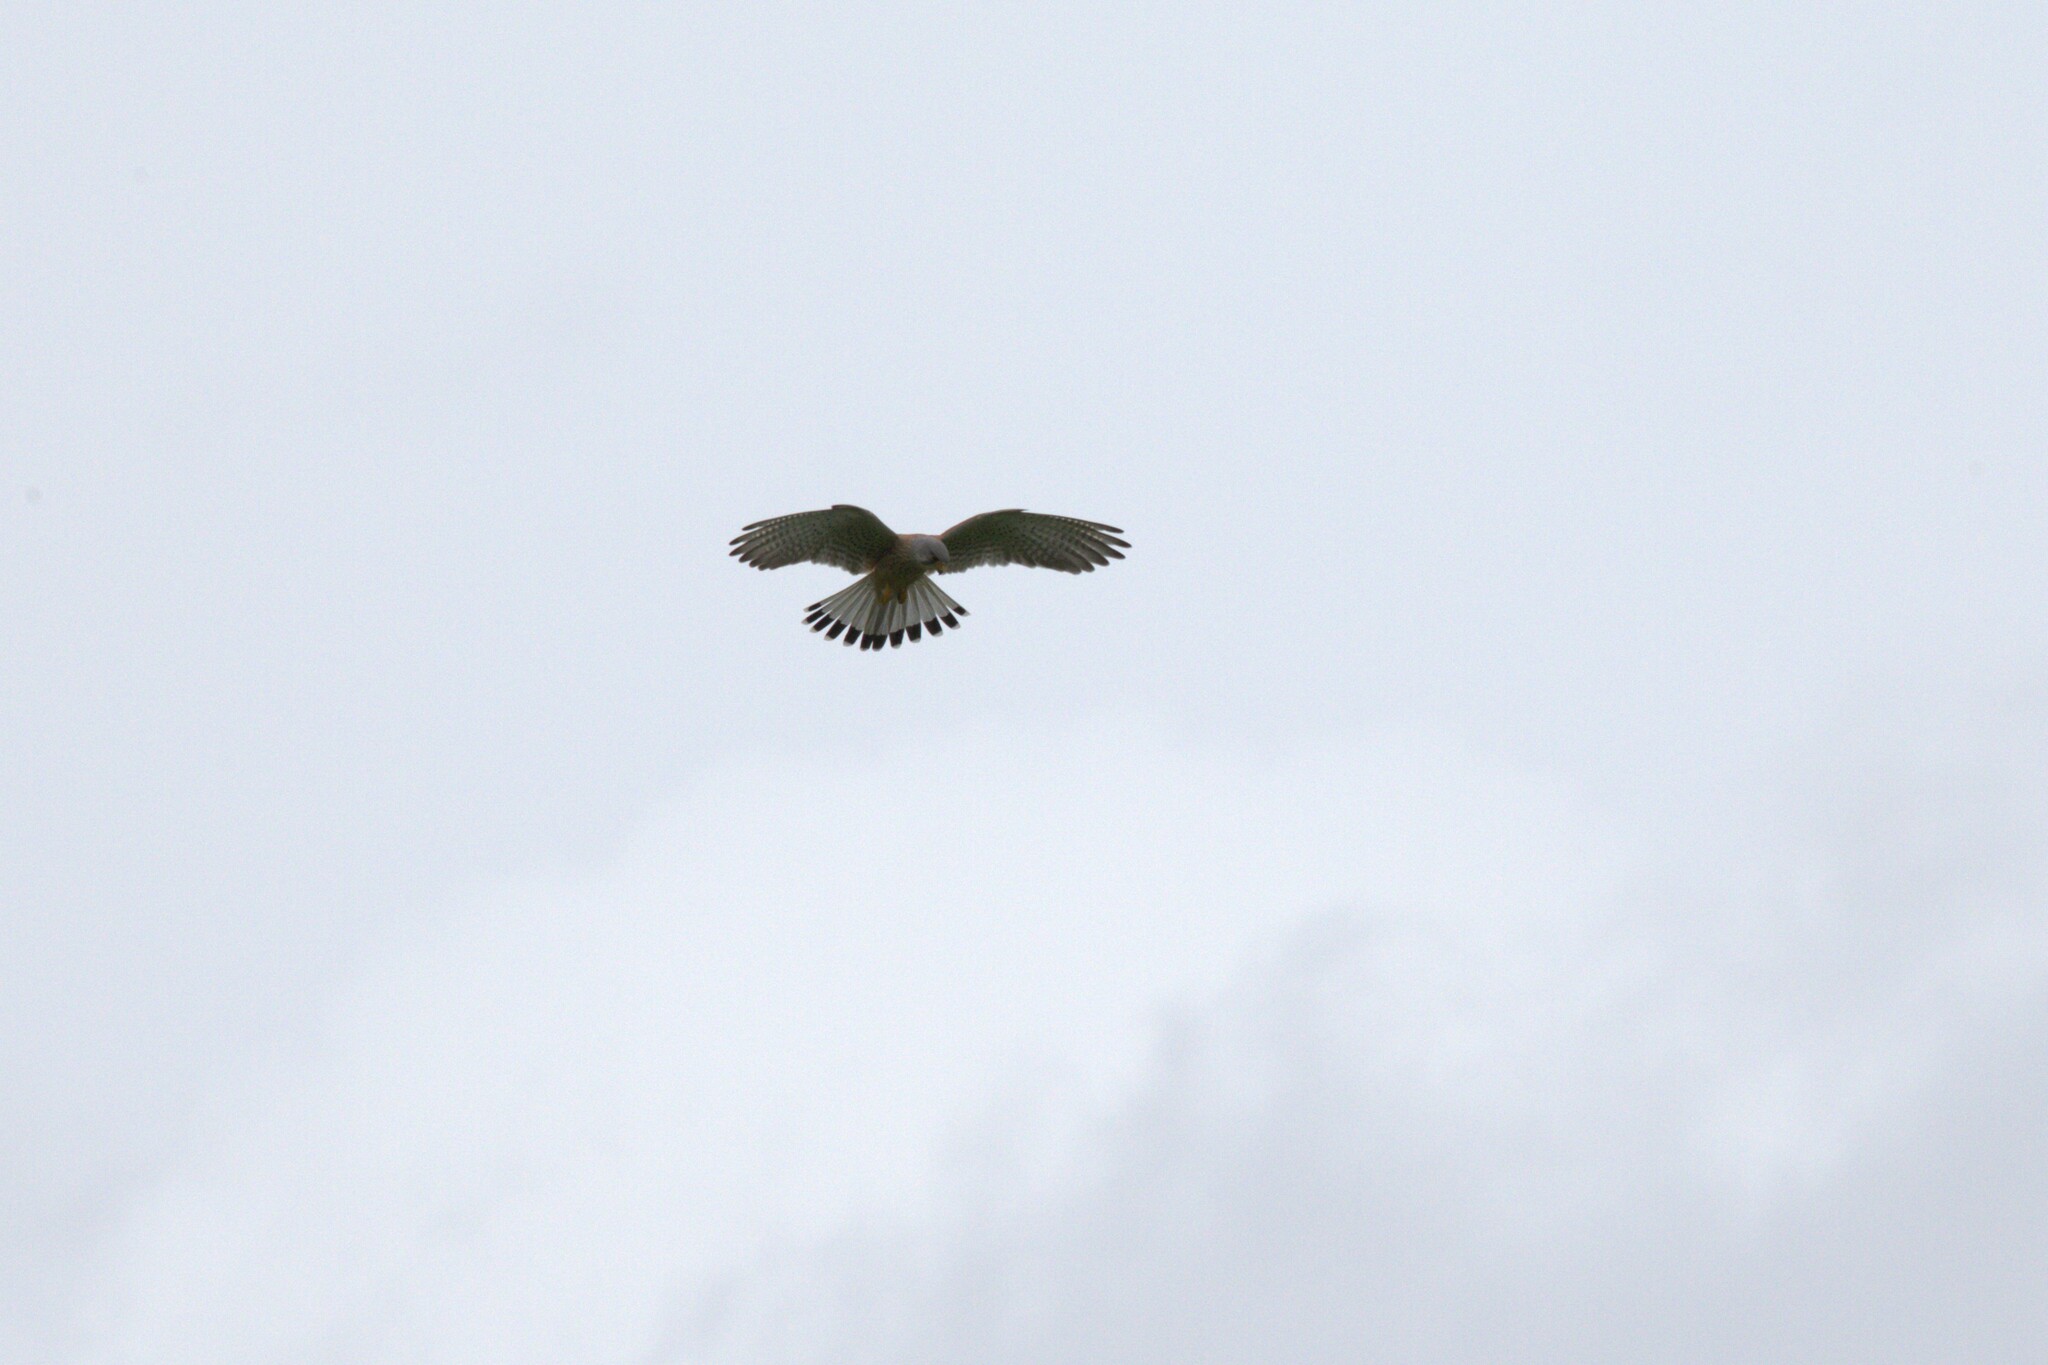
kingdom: Animalia
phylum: Chordata
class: Aves
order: Falconiformes
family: Falconidae
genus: Falco
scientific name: Falco tinnunculus
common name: Common kestrel
